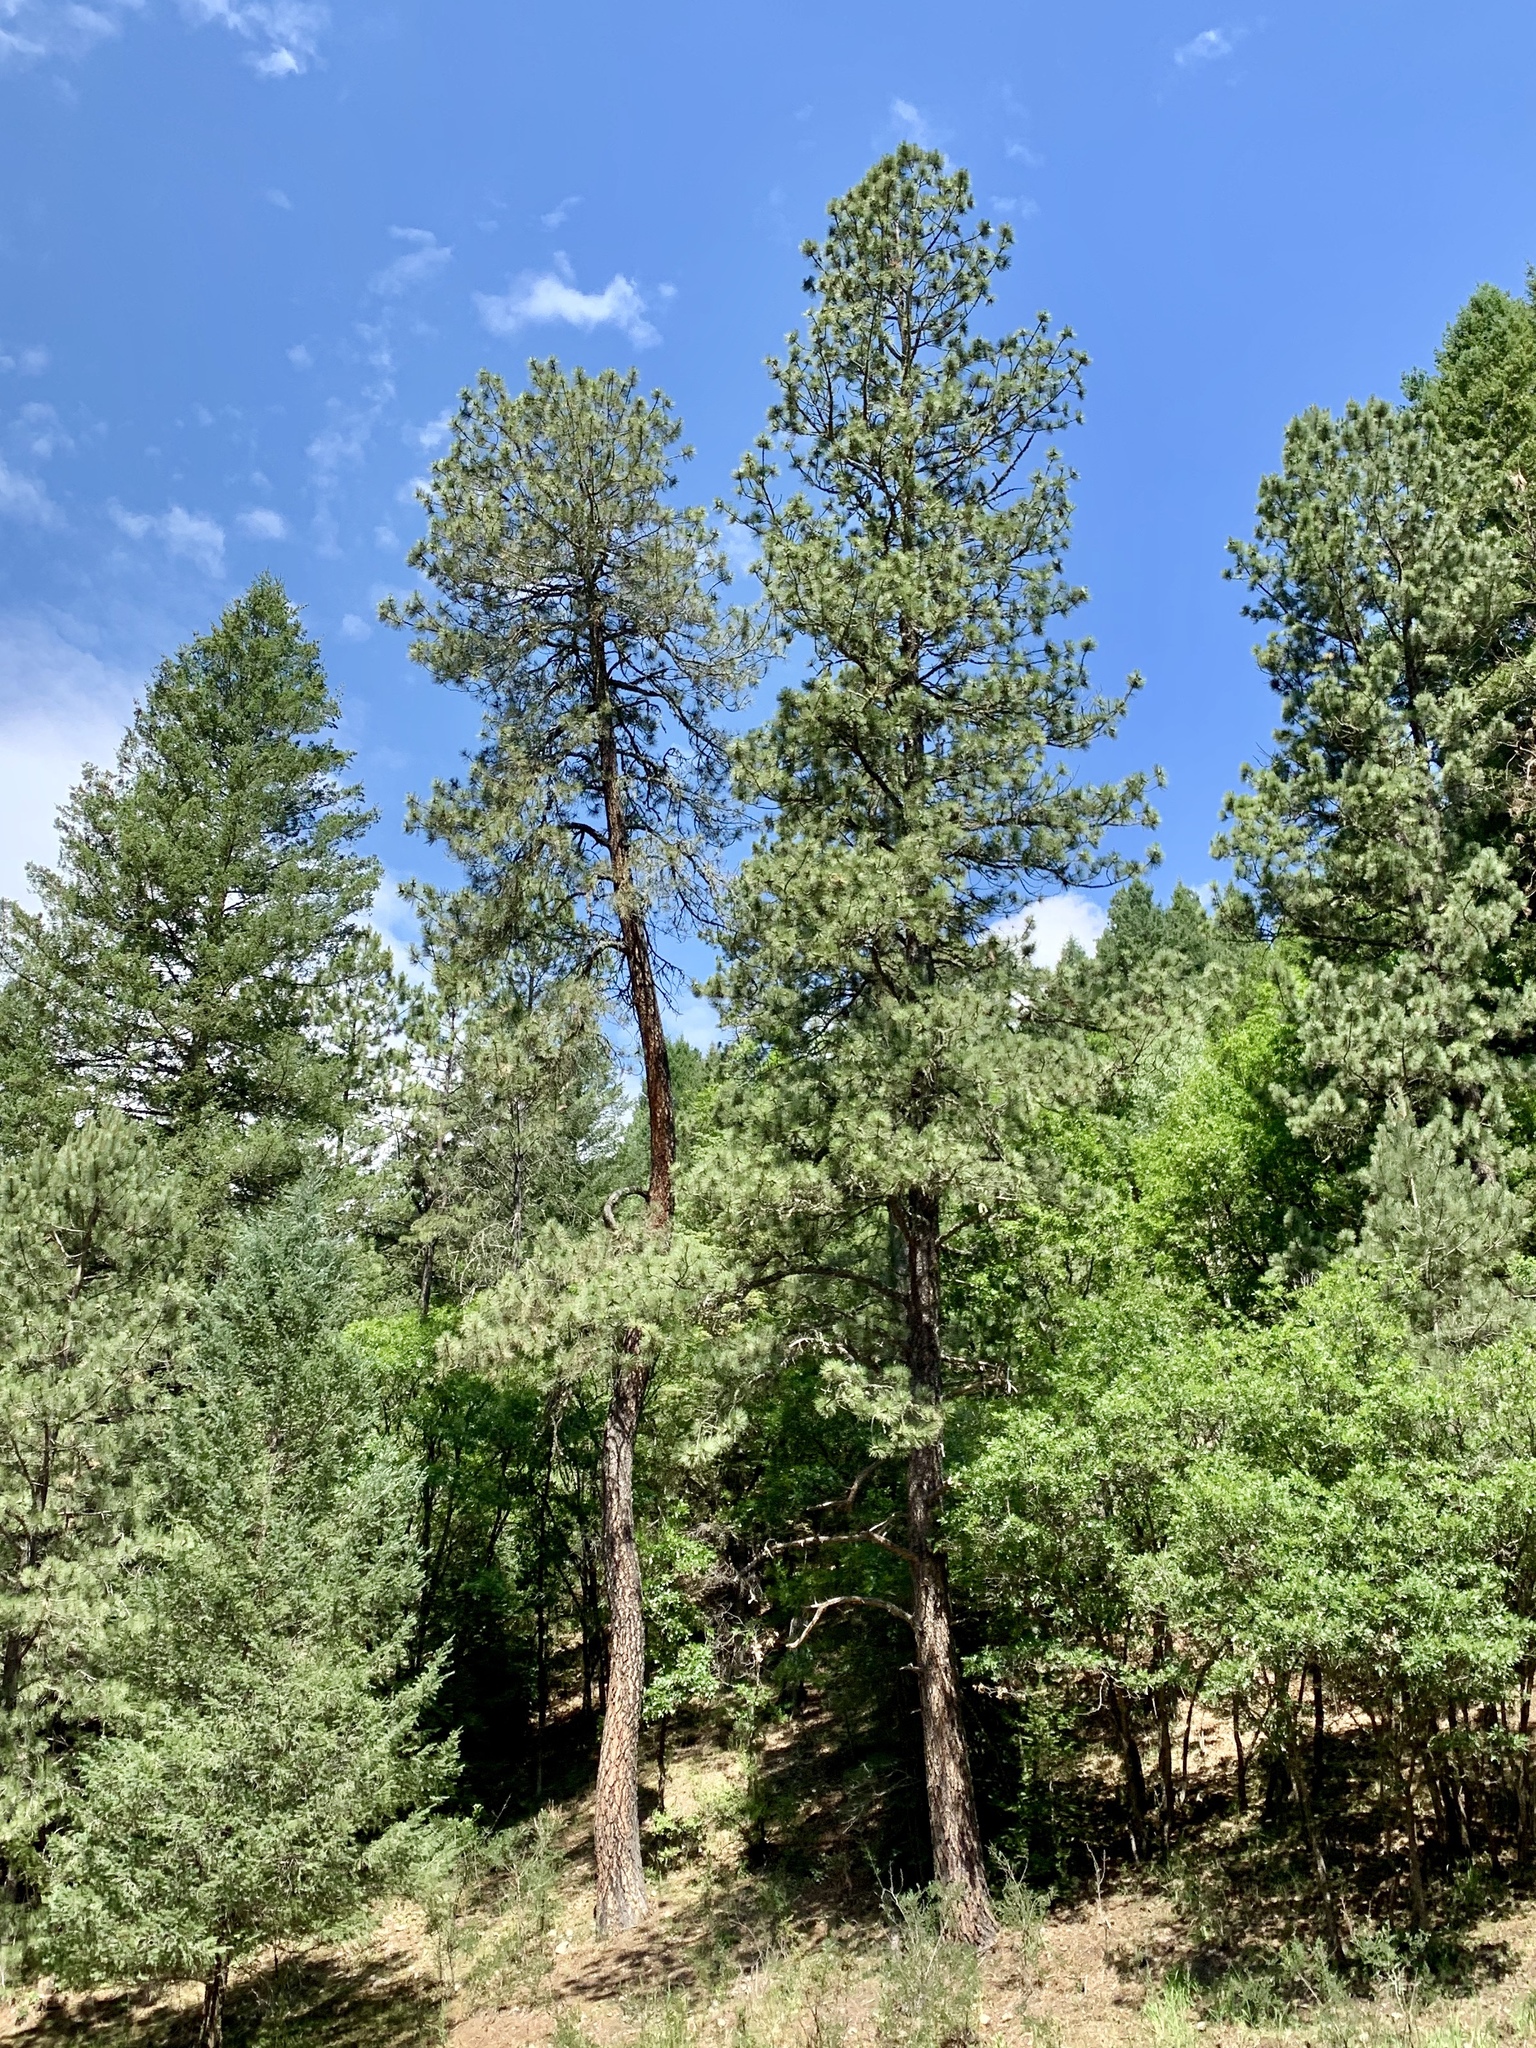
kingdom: Plantae
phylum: Tracheophyta
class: Pinopsida
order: Pinales
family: Pinaceae
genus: Pinus
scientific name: Pinus ponderosa
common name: Western yellow-pine
